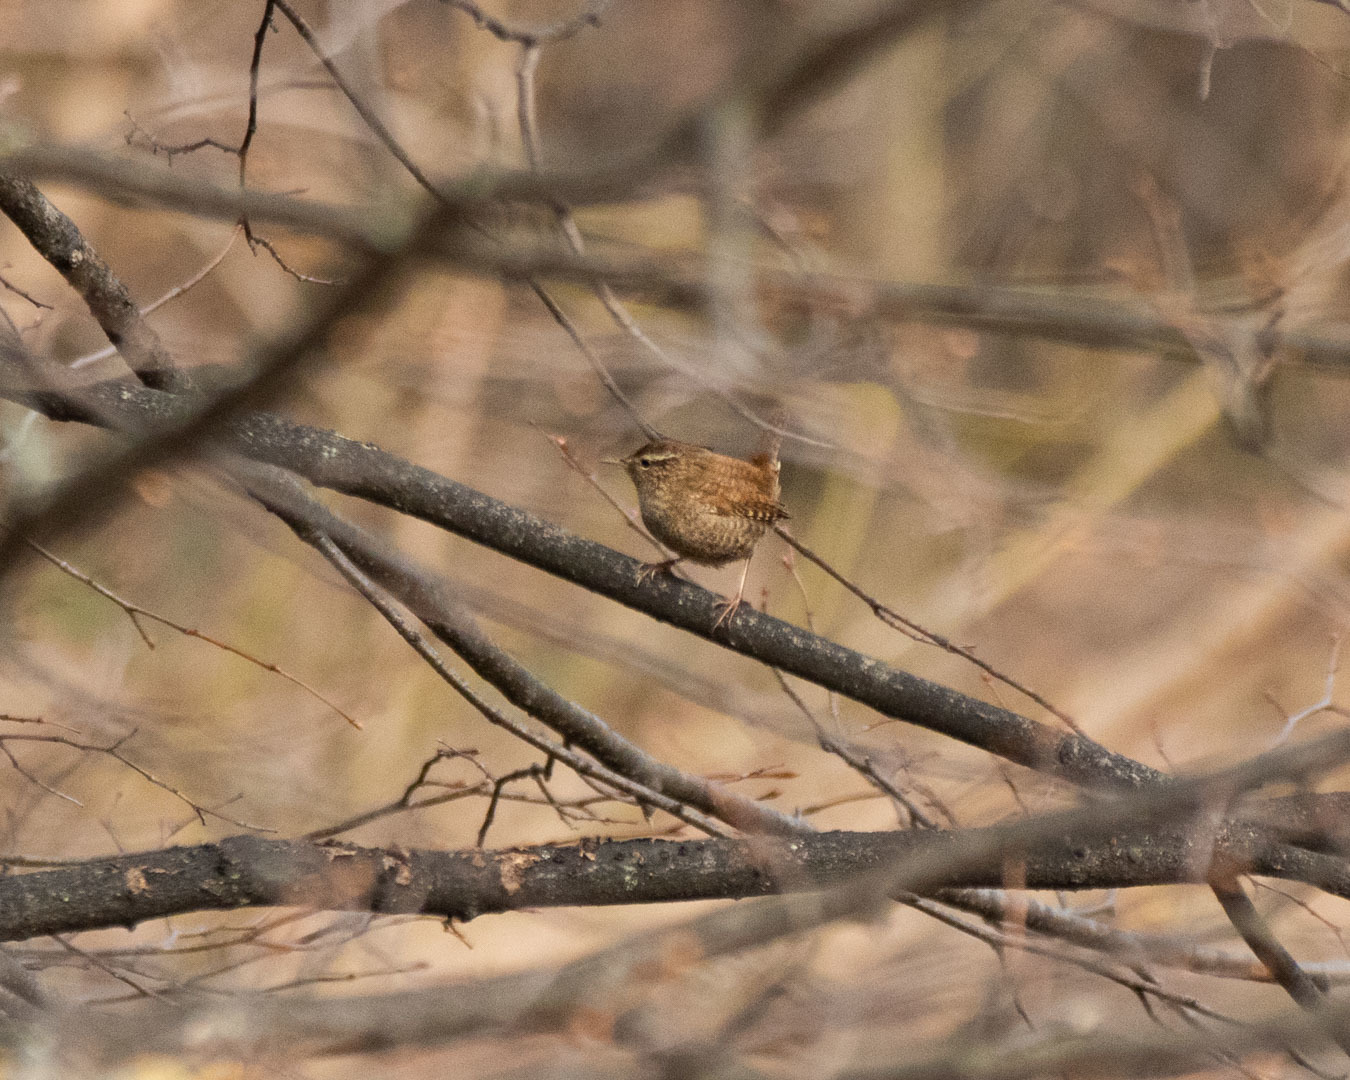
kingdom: Animalia
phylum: Chordata
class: Aves
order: Passeriformes
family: Troglodytidae
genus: Troglodytes
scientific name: Troglodytes troglodytes
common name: Eurasian wren
